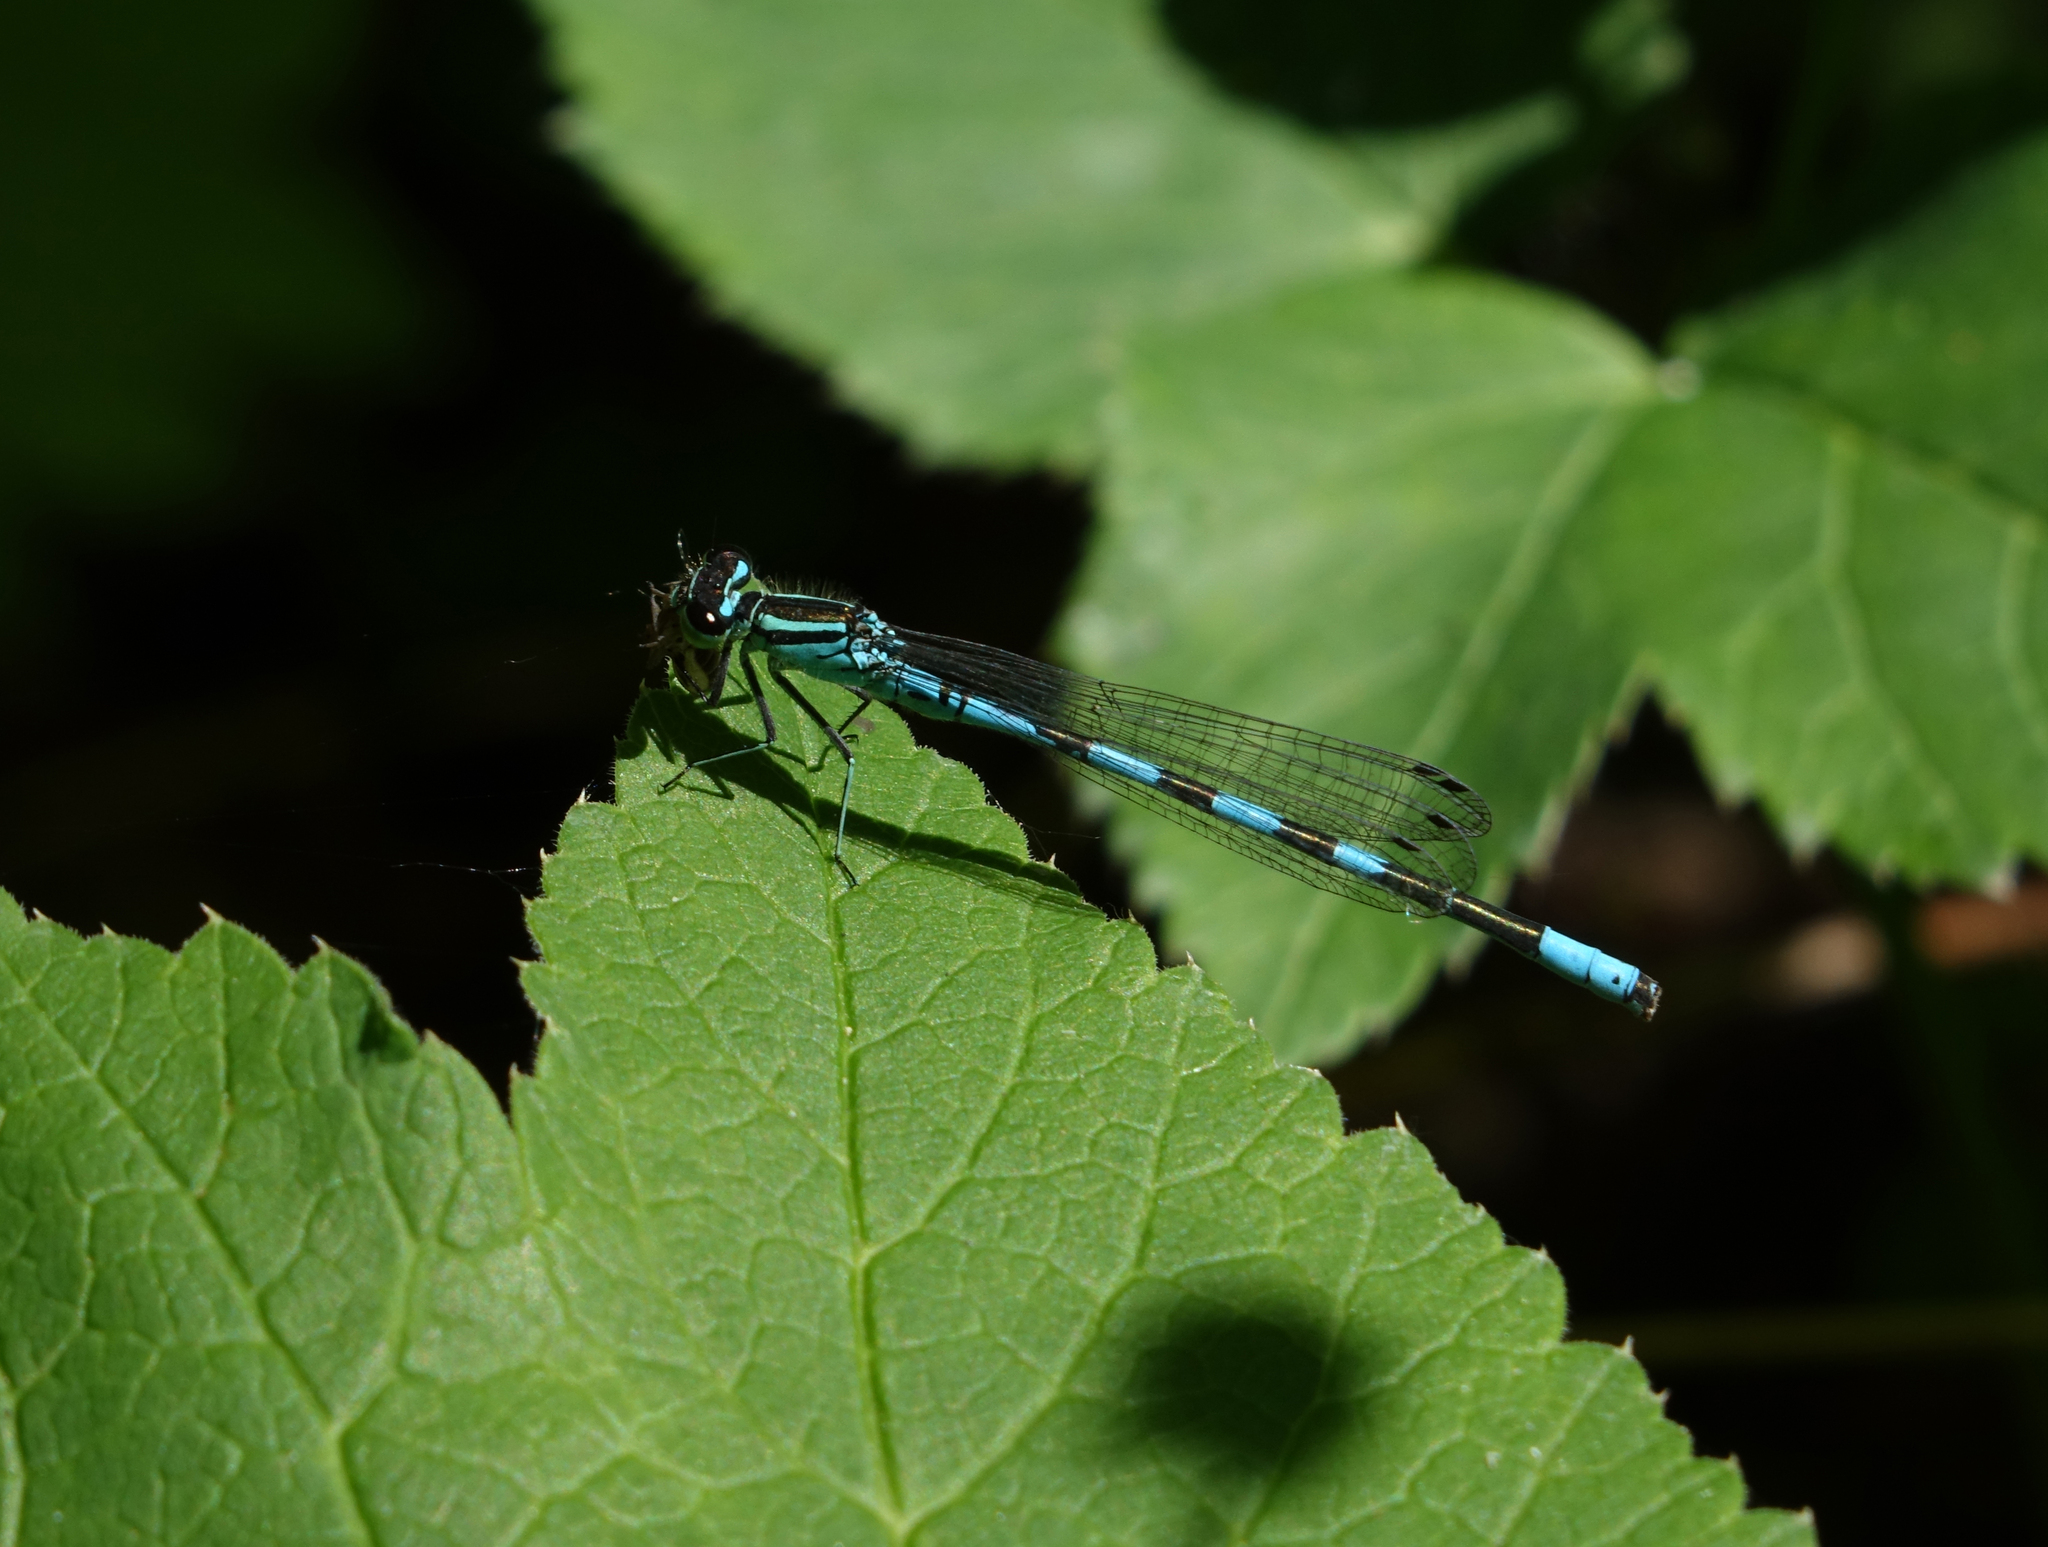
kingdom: Animalia
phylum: Arthropoda
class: Insecta
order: Odonata
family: Coenagrionidae
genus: Coenagrion
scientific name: Coenagrion hastulatum
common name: Spearhead bluet
